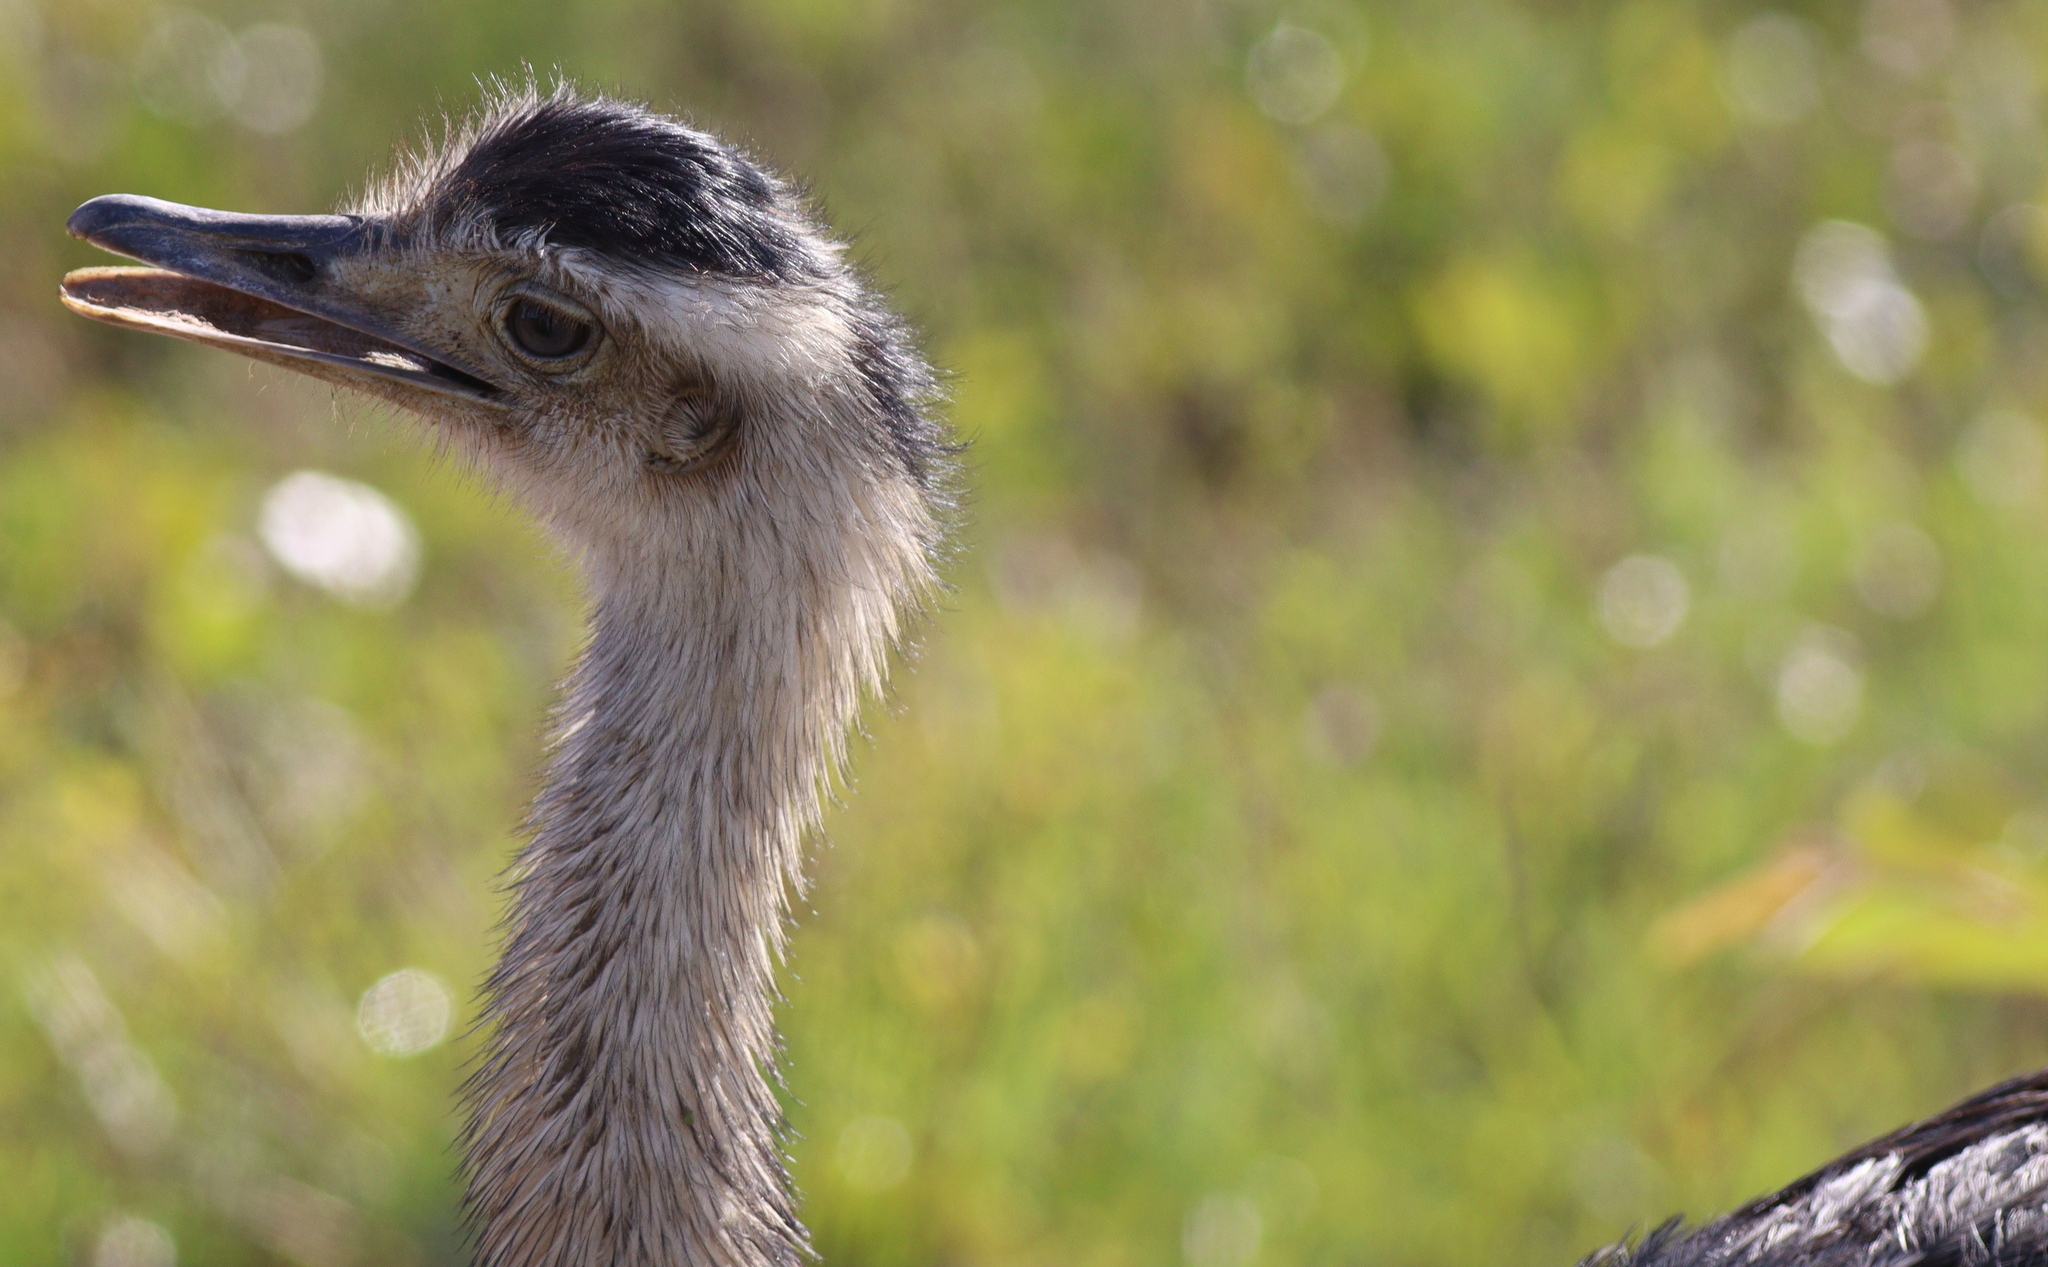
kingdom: Animalia
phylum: Chordata
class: Aves
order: Rheiformes
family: Rheidae
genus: Rhea
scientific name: Rhea americana
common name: Greater rhea
